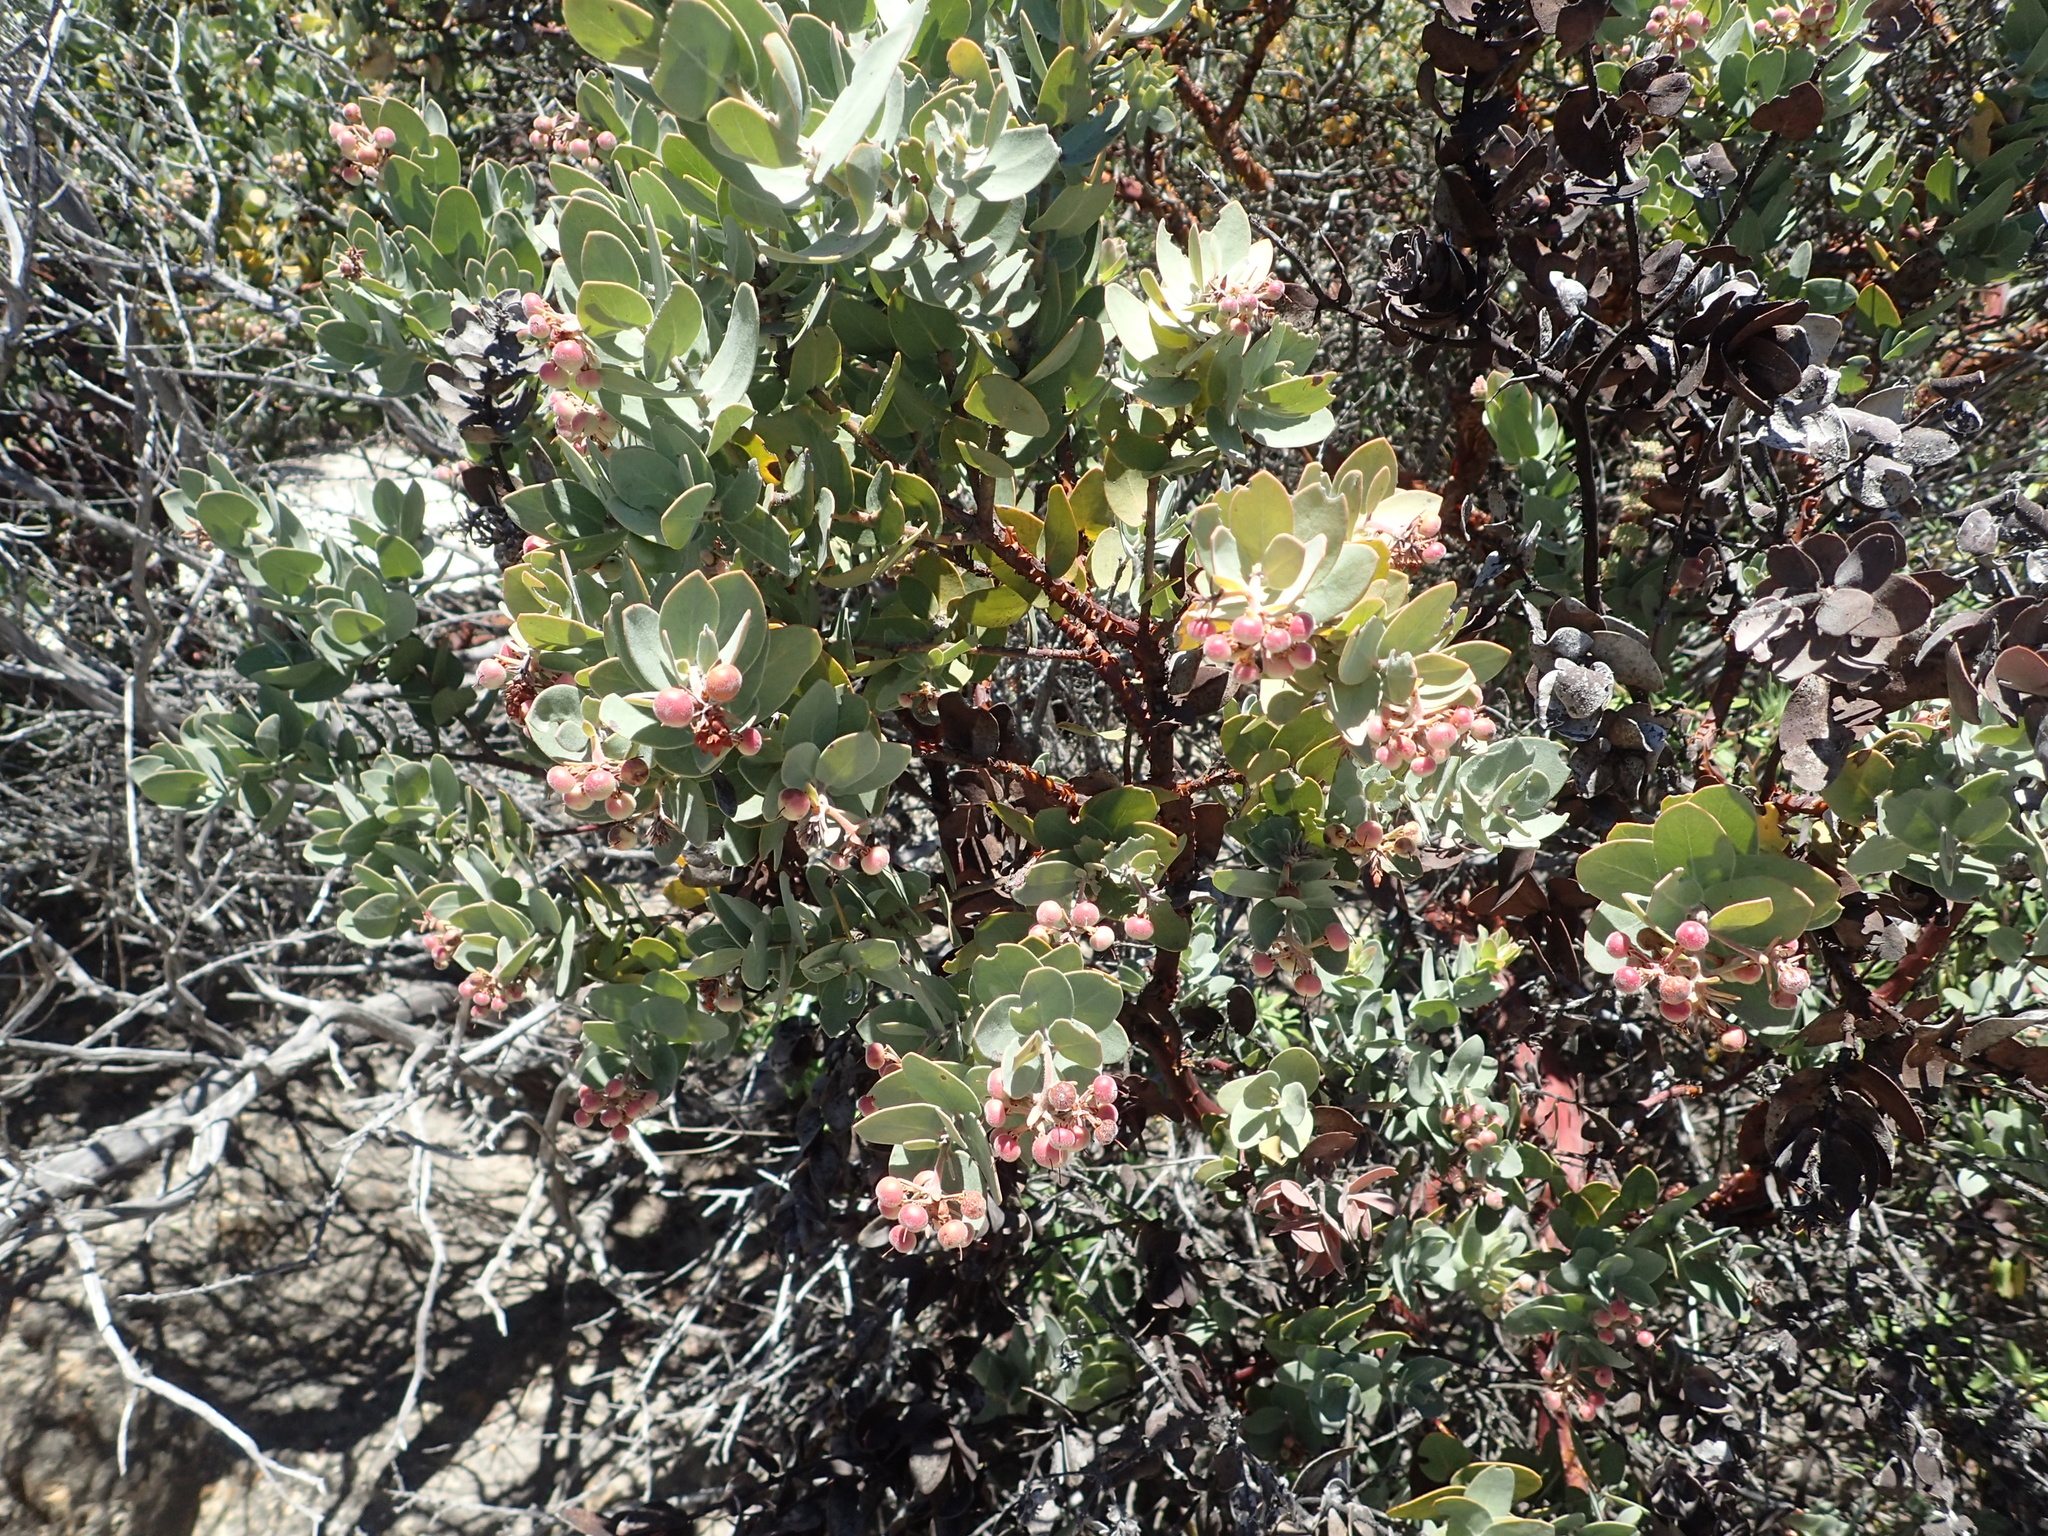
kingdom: Plantae
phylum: Tracheophyta
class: Magnoliopsida
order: Ericales
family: Ericaceae
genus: Arctostaphylos
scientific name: Arctostaphylos auriculata
